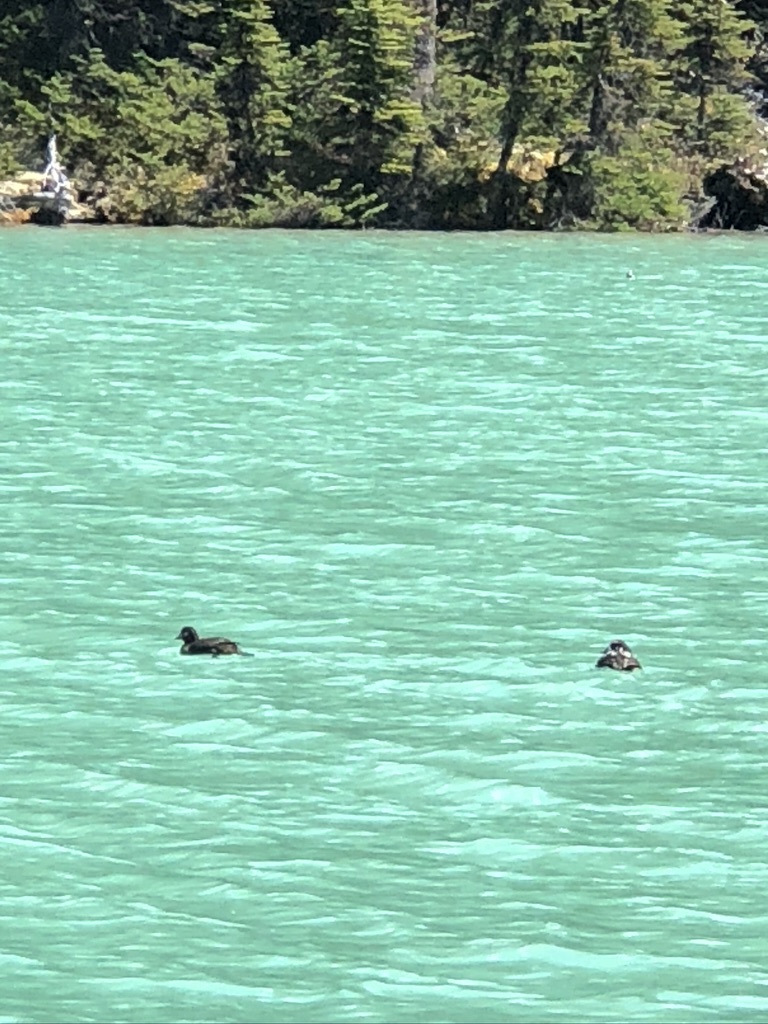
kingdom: Animalia
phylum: Chordata
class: Aves
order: Anseriformes
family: Anatidae
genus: Histrionicus
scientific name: Histrionicus histrionicus
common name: Harlequin duck
